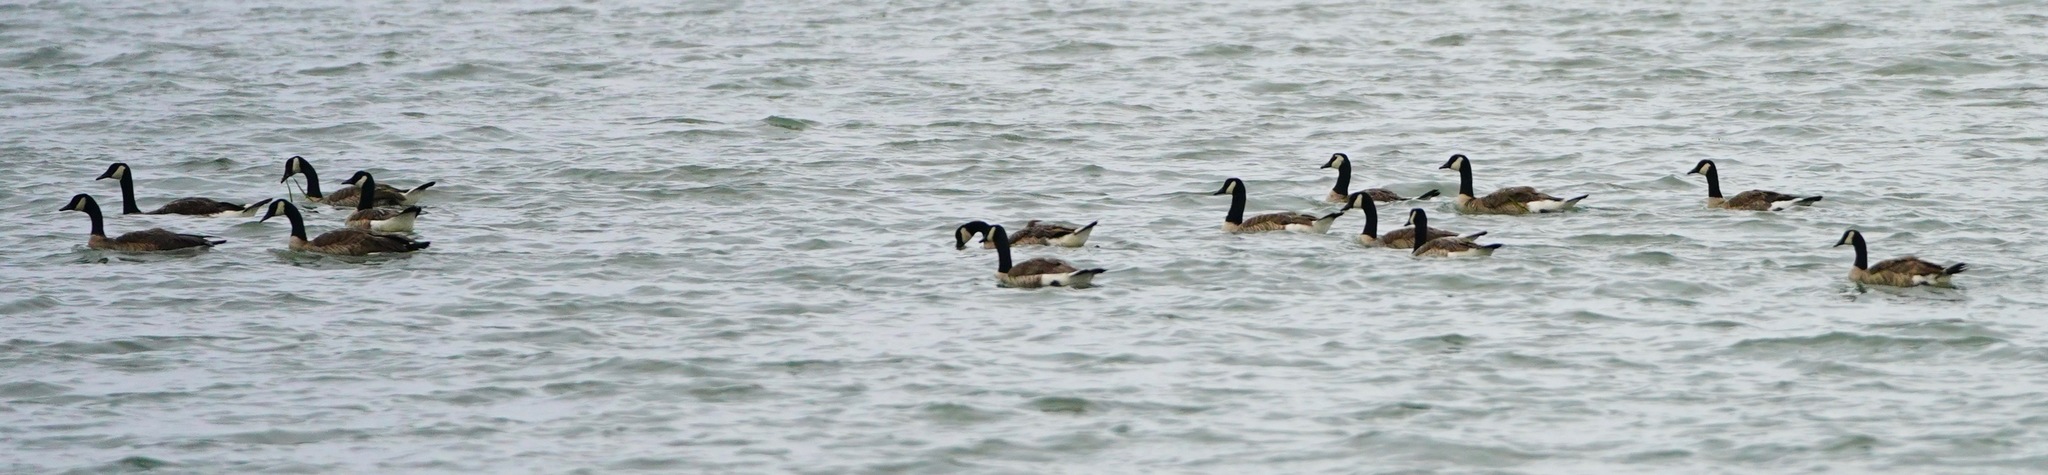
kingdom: Animalia
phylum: Chordata
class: Aves
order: Anseriformes
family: Anatidae
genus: Branta
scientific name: Branta canadensis
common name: Canada goose
